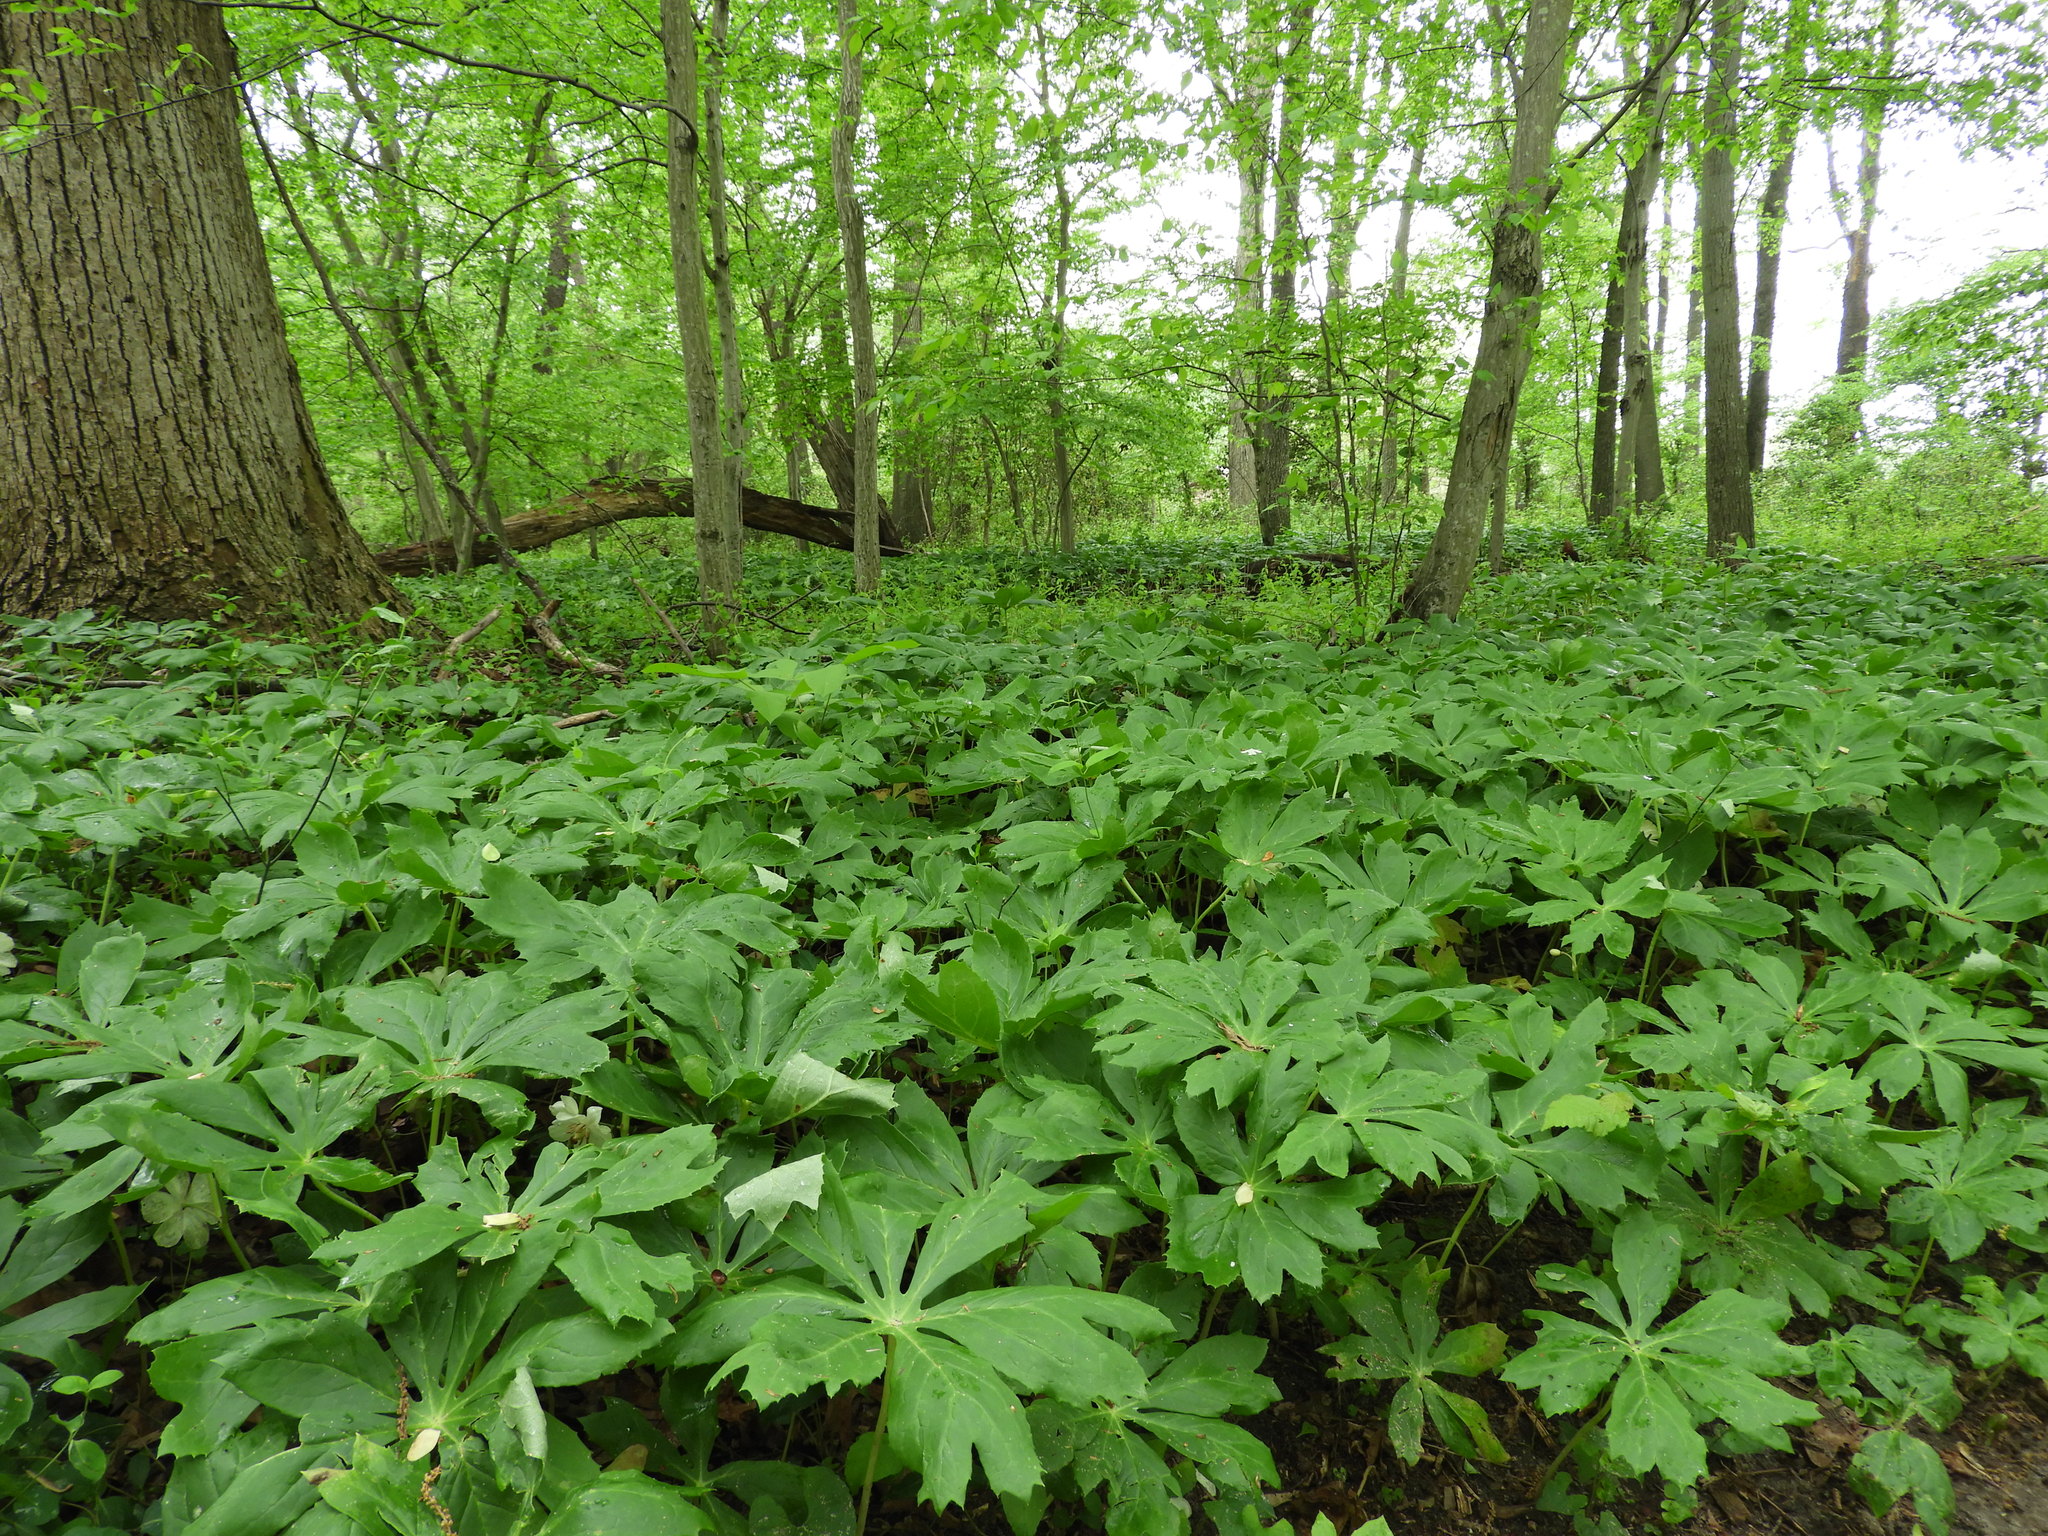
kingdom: Plantae
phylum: Tracheophyta
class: Magnoliopsida
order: Ranunculales
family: Berberidaceae
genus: Podophyllum
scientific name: Podophyllum peltatum
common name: Wild mandrake
